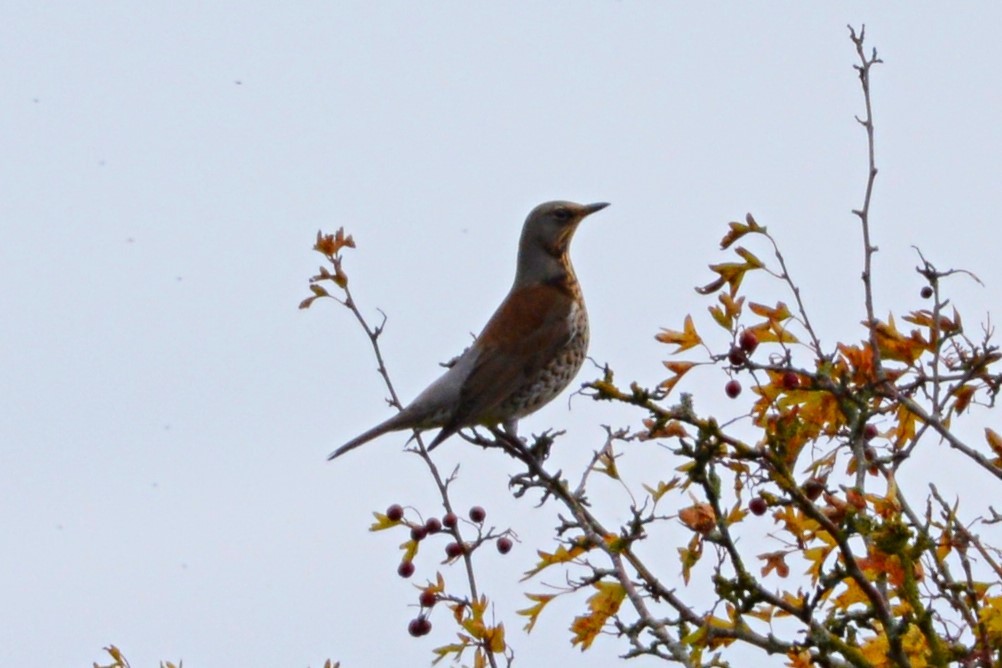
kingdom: Animalia
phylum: Chordata
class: Aves
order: Passeriformes
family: Turdidae
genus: Turdus
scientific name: Turdus pilaris
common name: Fieldfare
